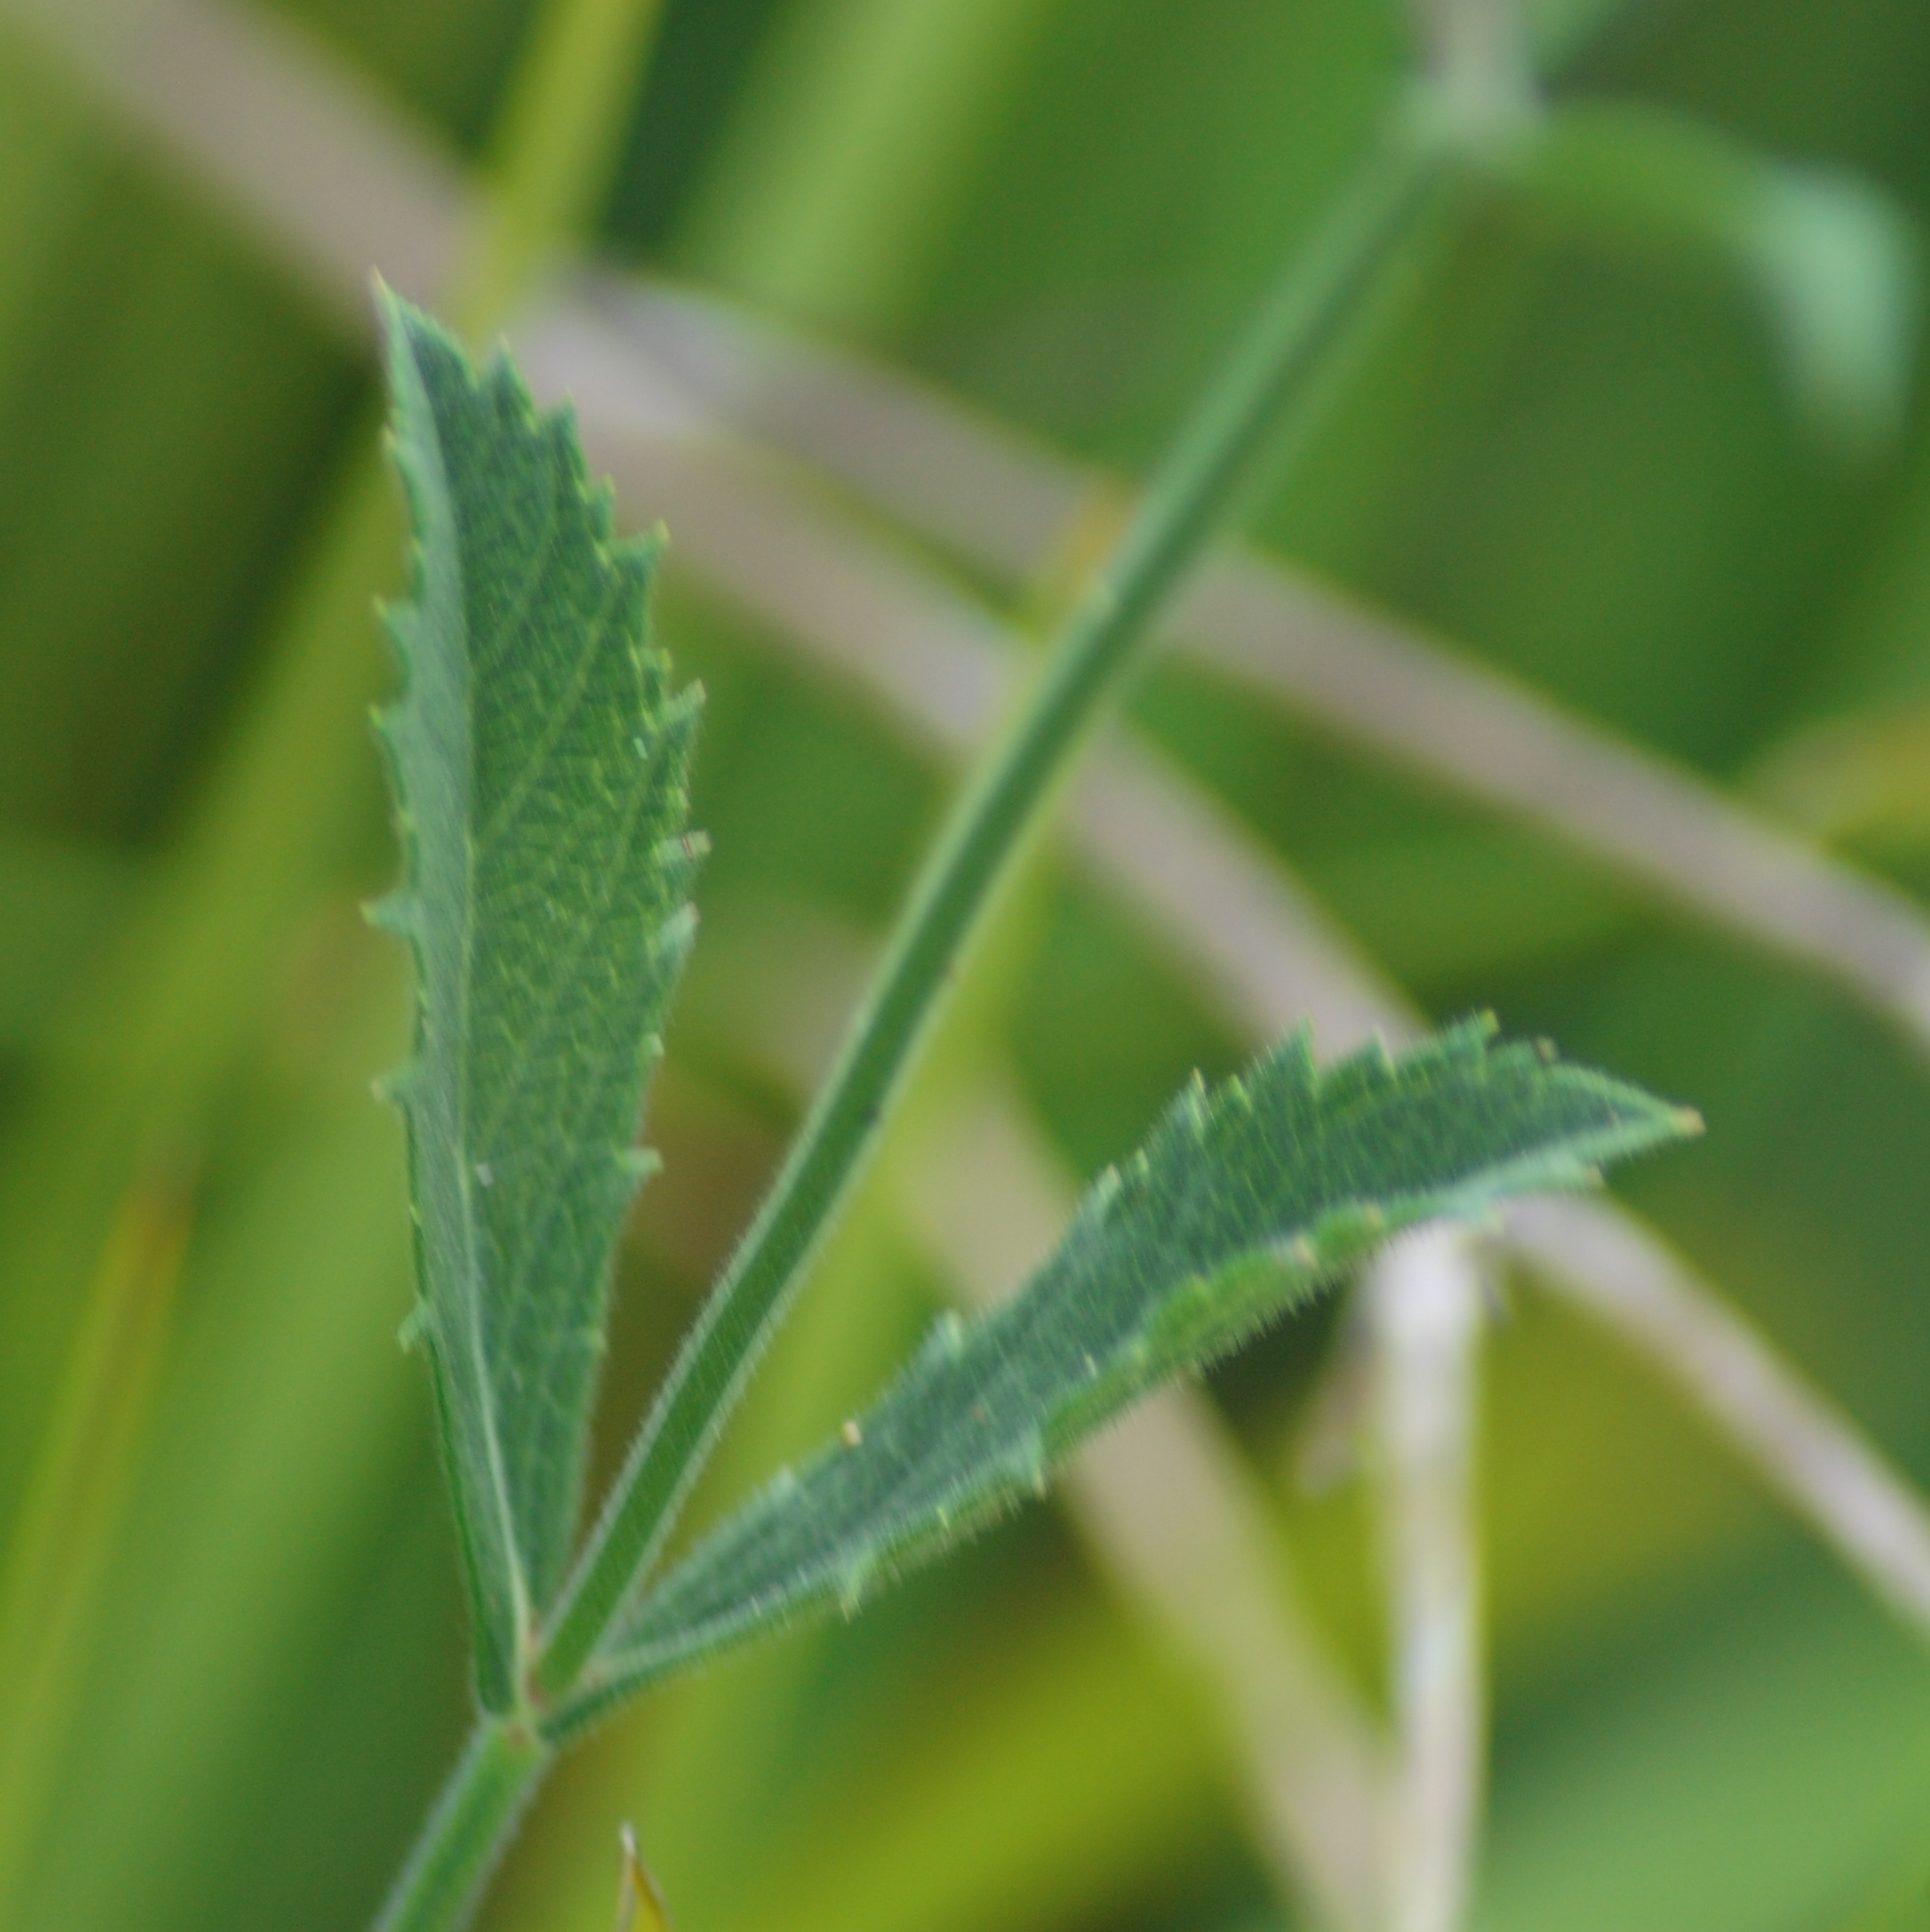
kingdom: Plantae
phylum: Tracheophyta
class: Magnoliopsida
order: Lamiales
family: Verbenaceae
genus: Verbena
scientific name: Verbena bonariensis
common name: Purpletop vervain
